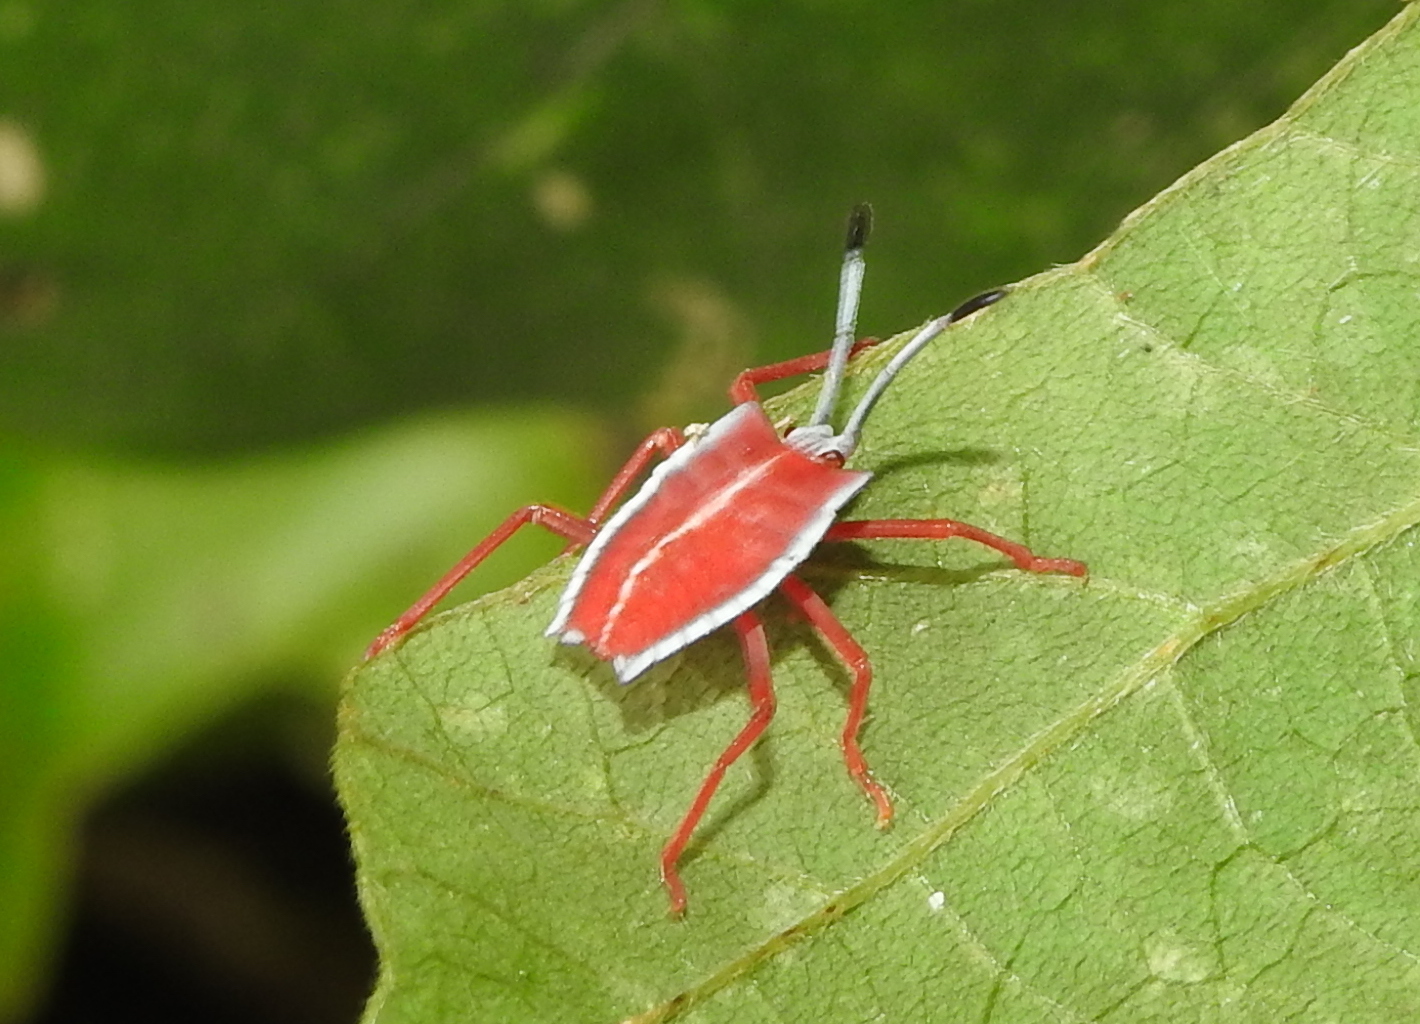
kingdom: Animalia
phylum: Arthropoda
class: Insecta
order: Hemiptera
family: Tessaratomidae
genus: Pycanum
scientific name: Pycanum alternatum
